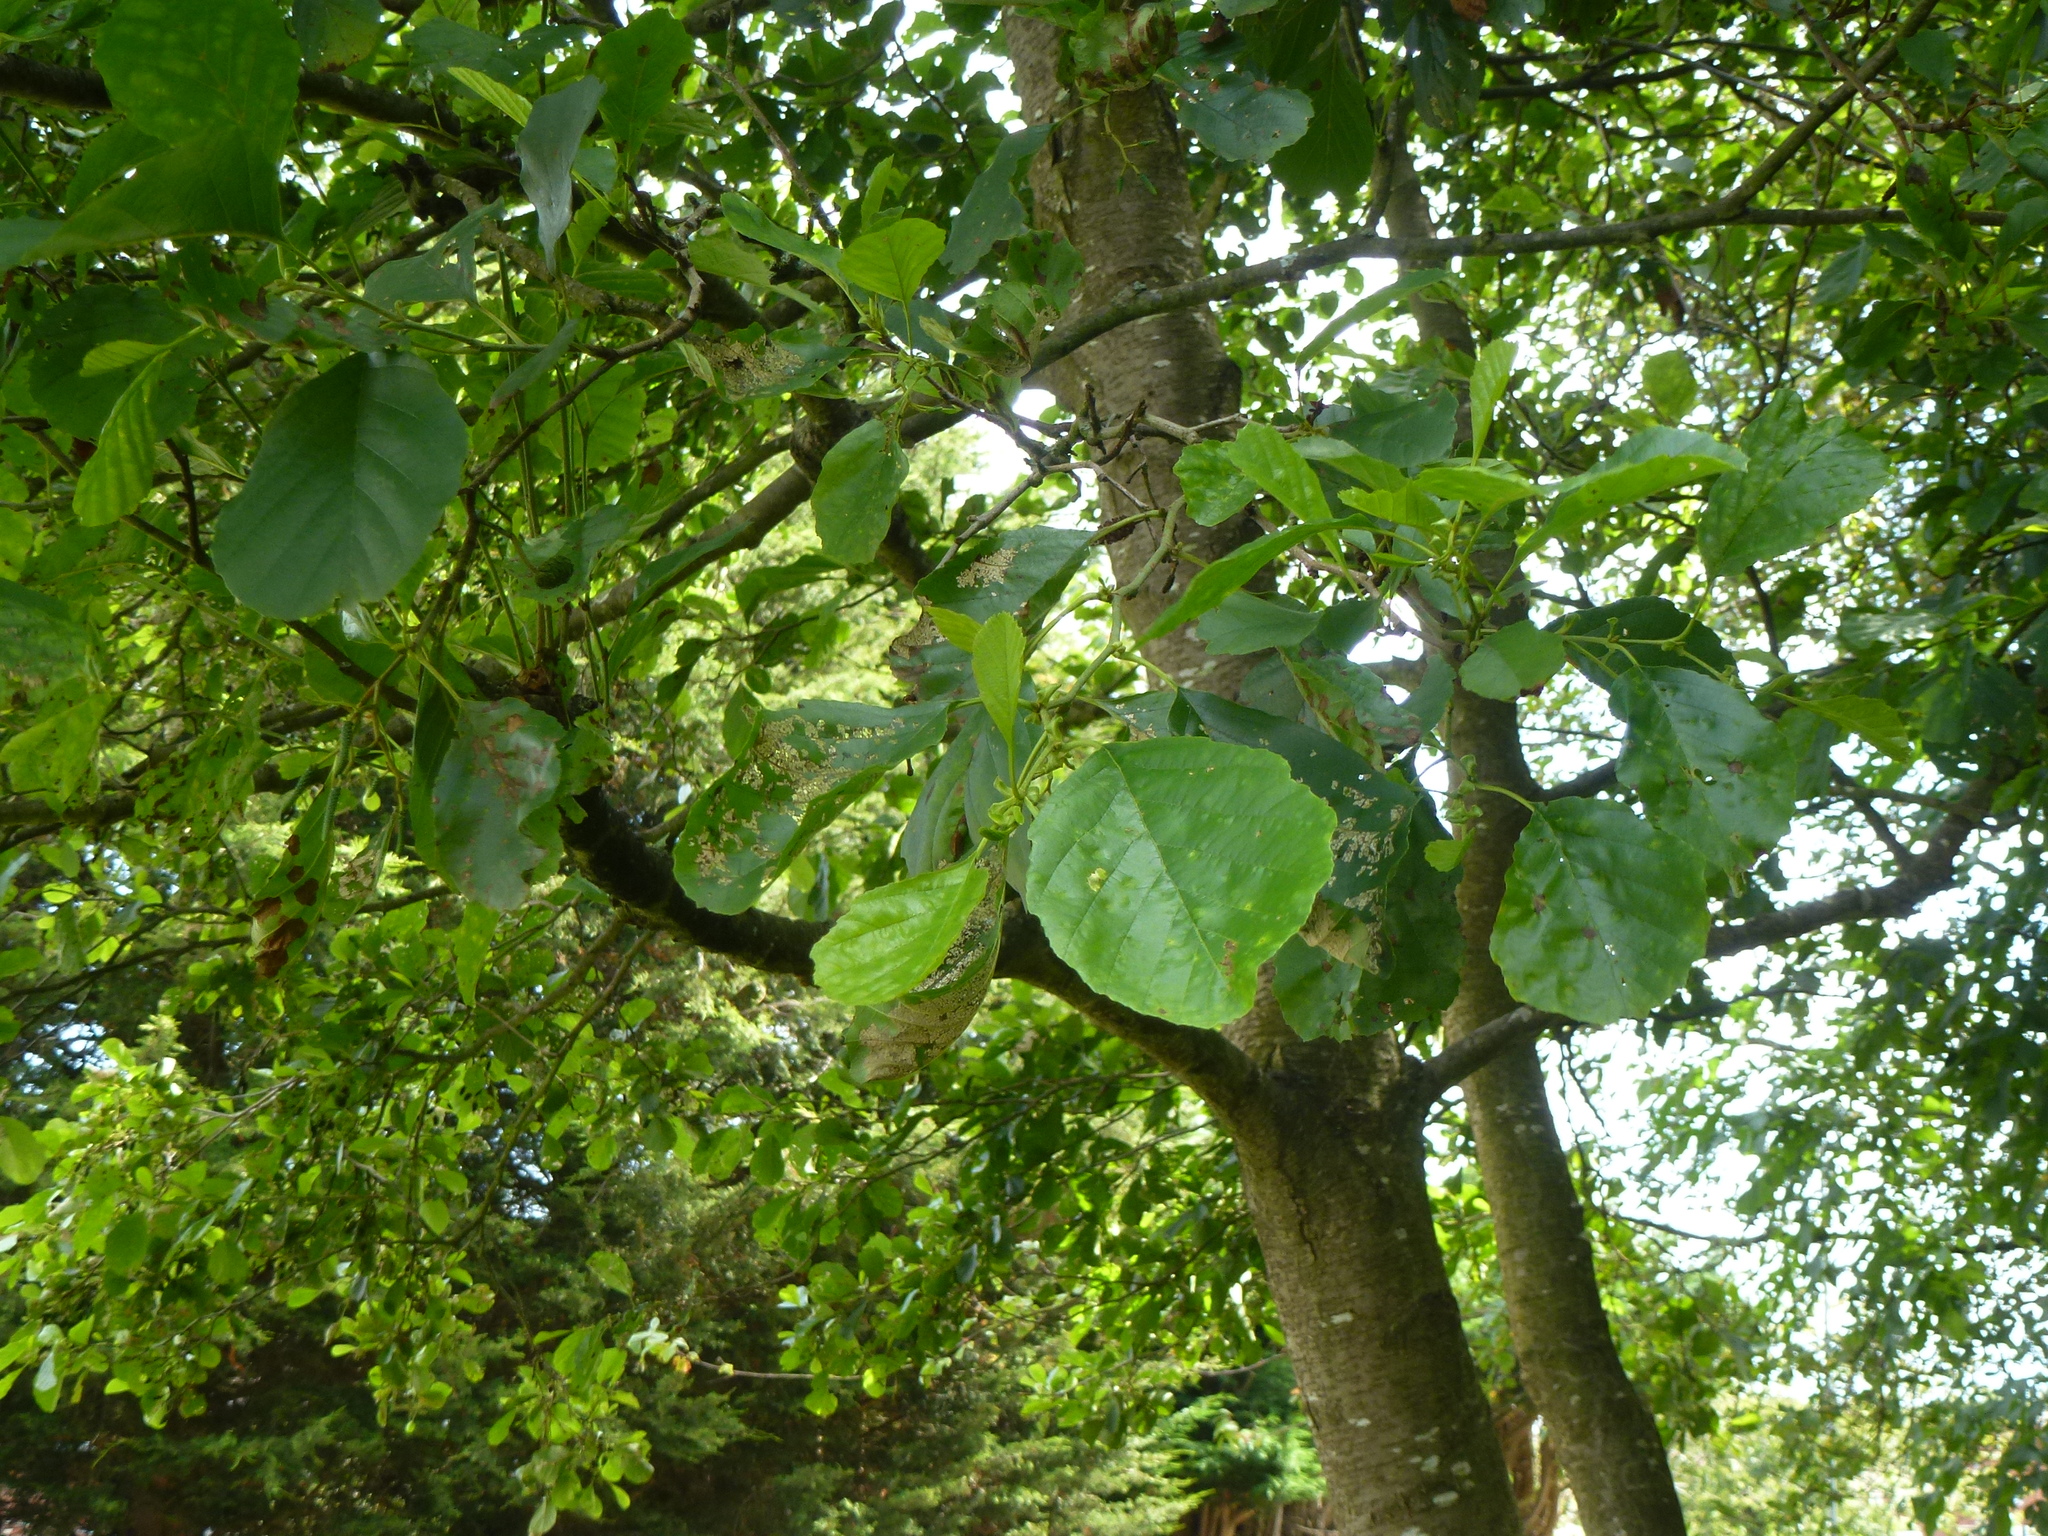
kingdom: Plantae
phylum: Tracheophyta
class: Magnoliopsida
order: Fagales
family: Betulaceae
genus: Alnus
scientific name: Alnus glutinosa
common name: Black alder
